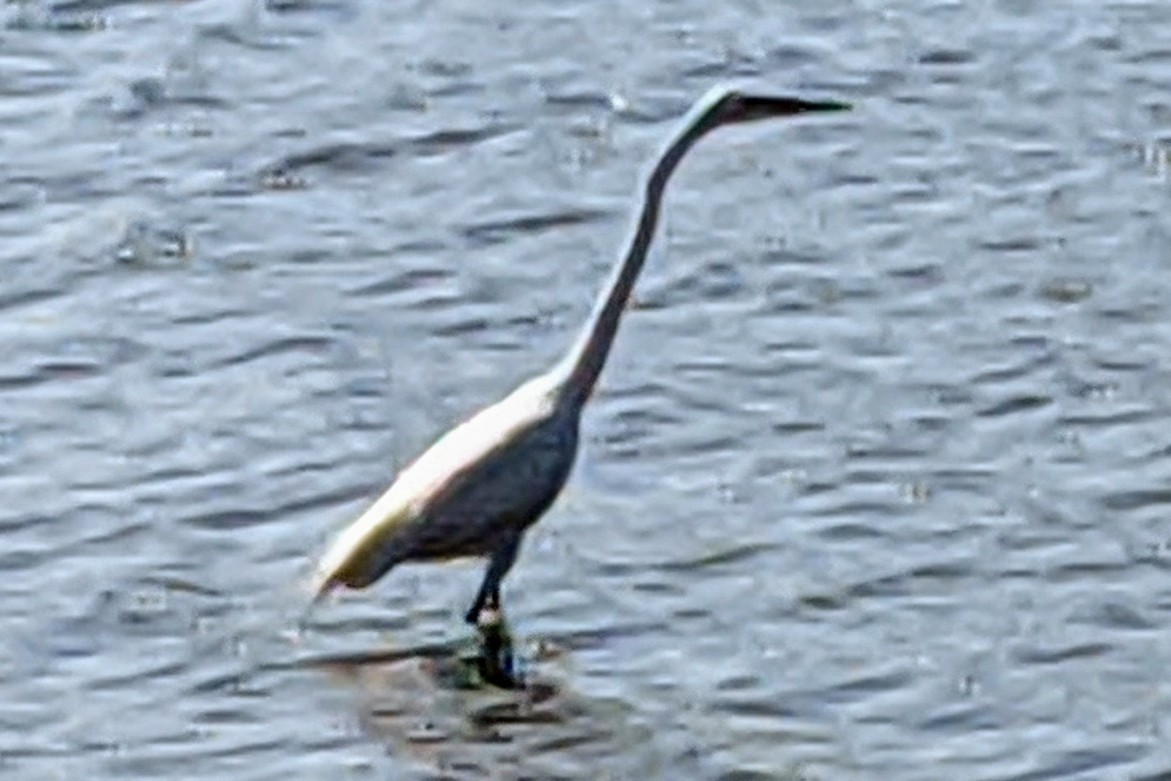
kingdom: Animalia
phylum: Chordata
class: Aves
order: Pelecaniformes
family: Ardeidae
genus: Ardea
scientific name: Ardea alba
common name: Great egret
